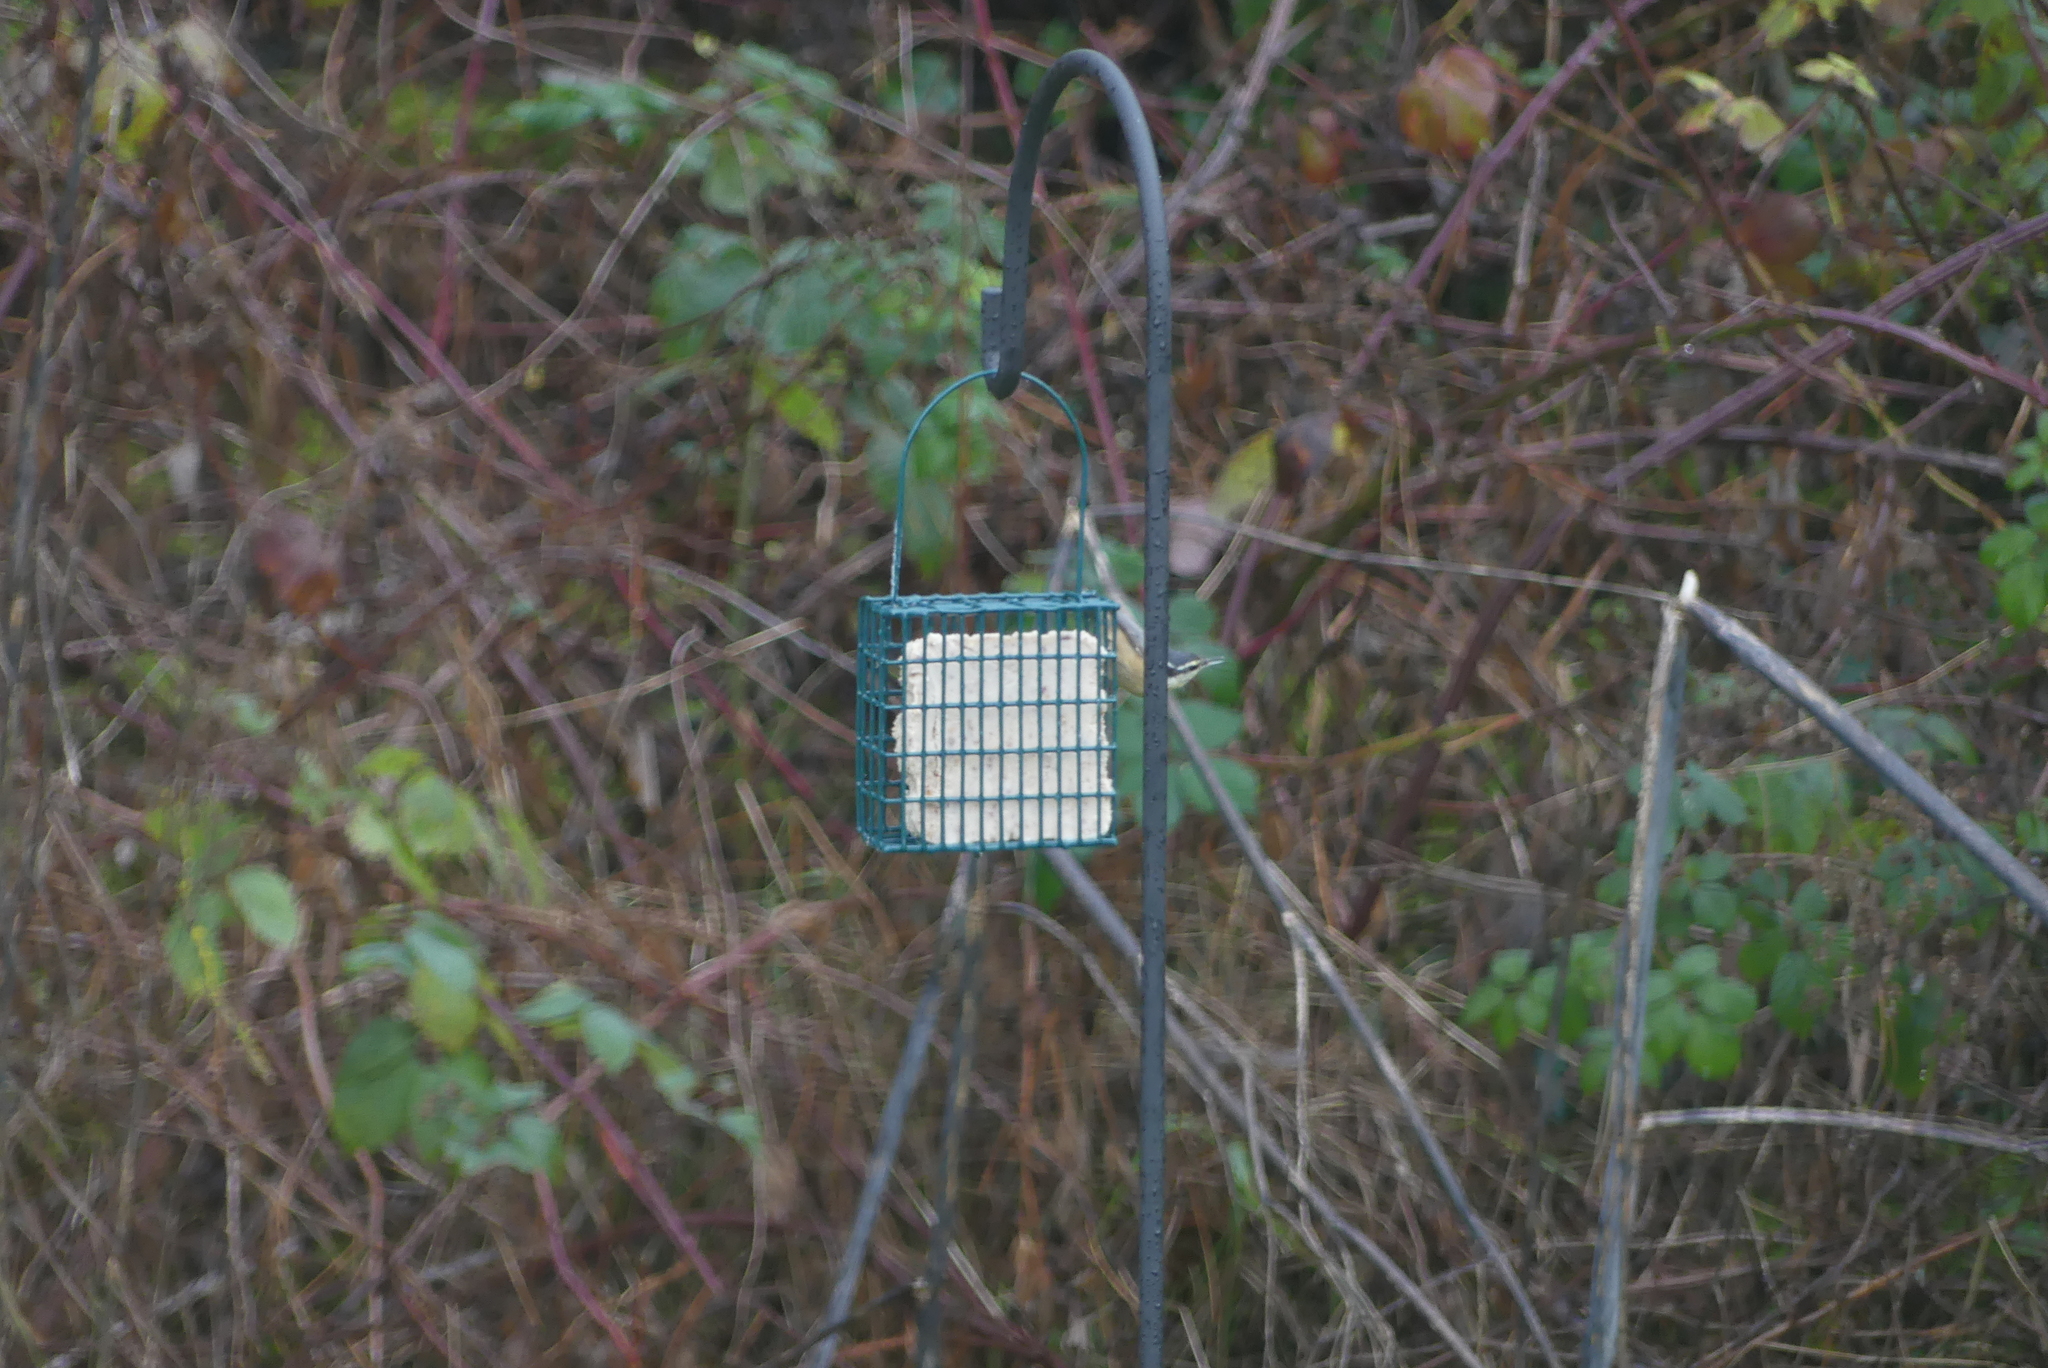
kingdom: Animalia
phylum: Chordata
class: Aves
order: Passeriformes
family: Sittidae
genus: Sitta
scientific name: Sitta canadensis
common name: Red-breasted nuthatch
